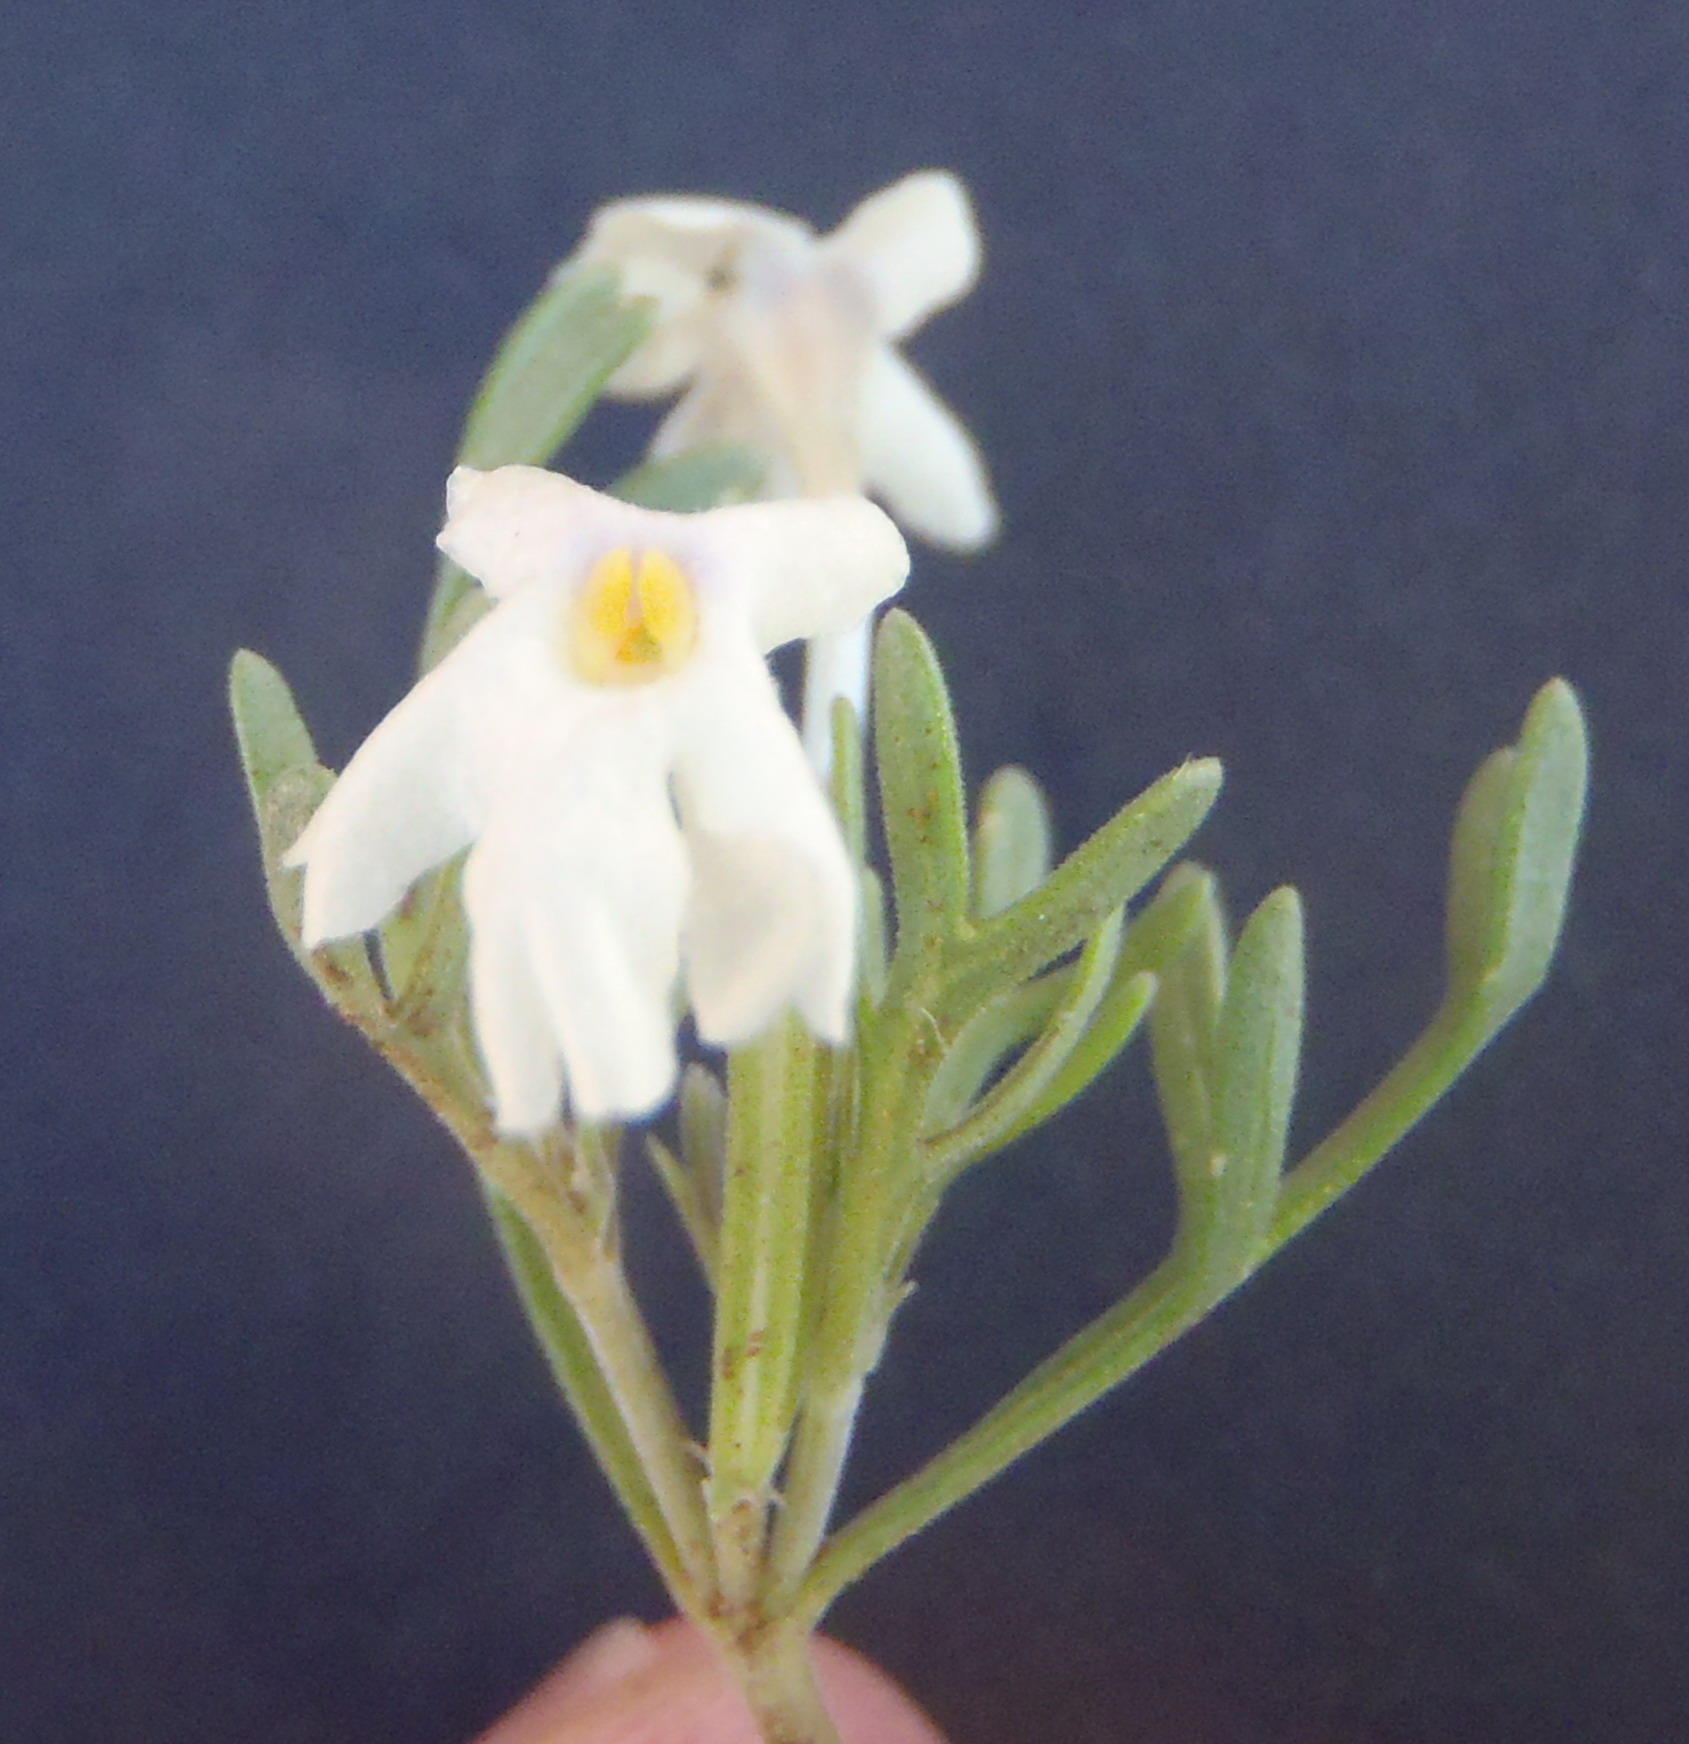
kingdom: Plantae
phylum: Tracheophyta
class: Magnoliopsida
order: Lamiales
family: Verbenaceae
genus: Chascanum
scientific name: Chascanum pinnatifidum
